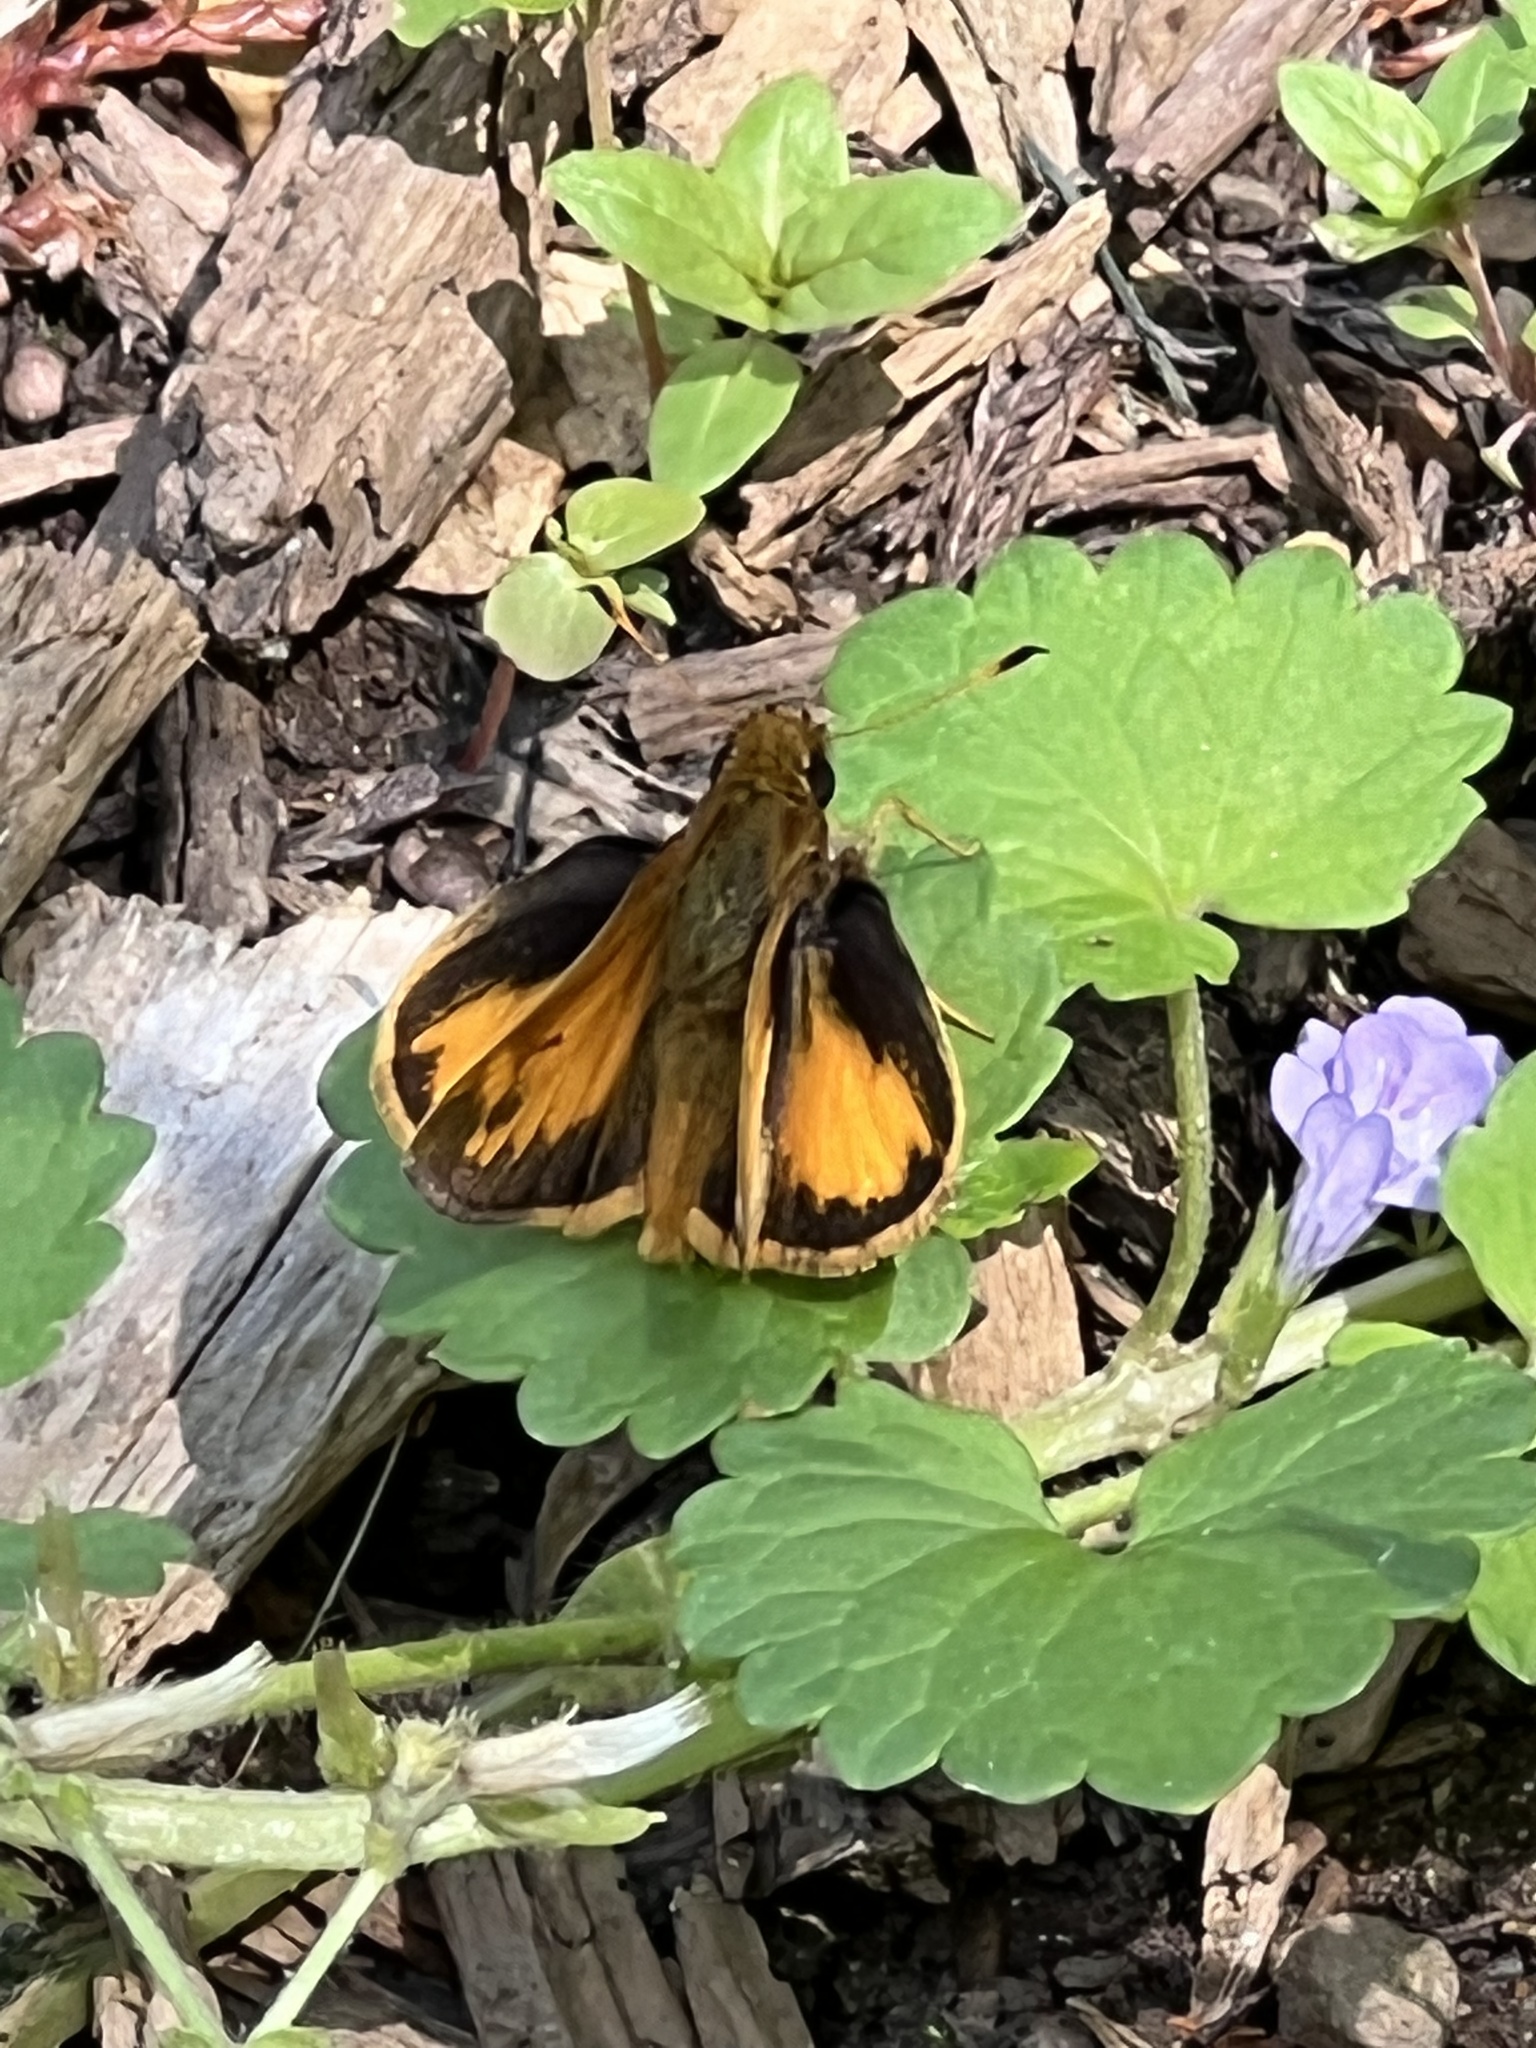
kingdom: Animalia
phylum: Arthropoda
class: Insecta
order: Lepidoptera
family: Hesperiidae
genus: Lon
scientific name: Lon zabulon
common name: Zabulon skipper
